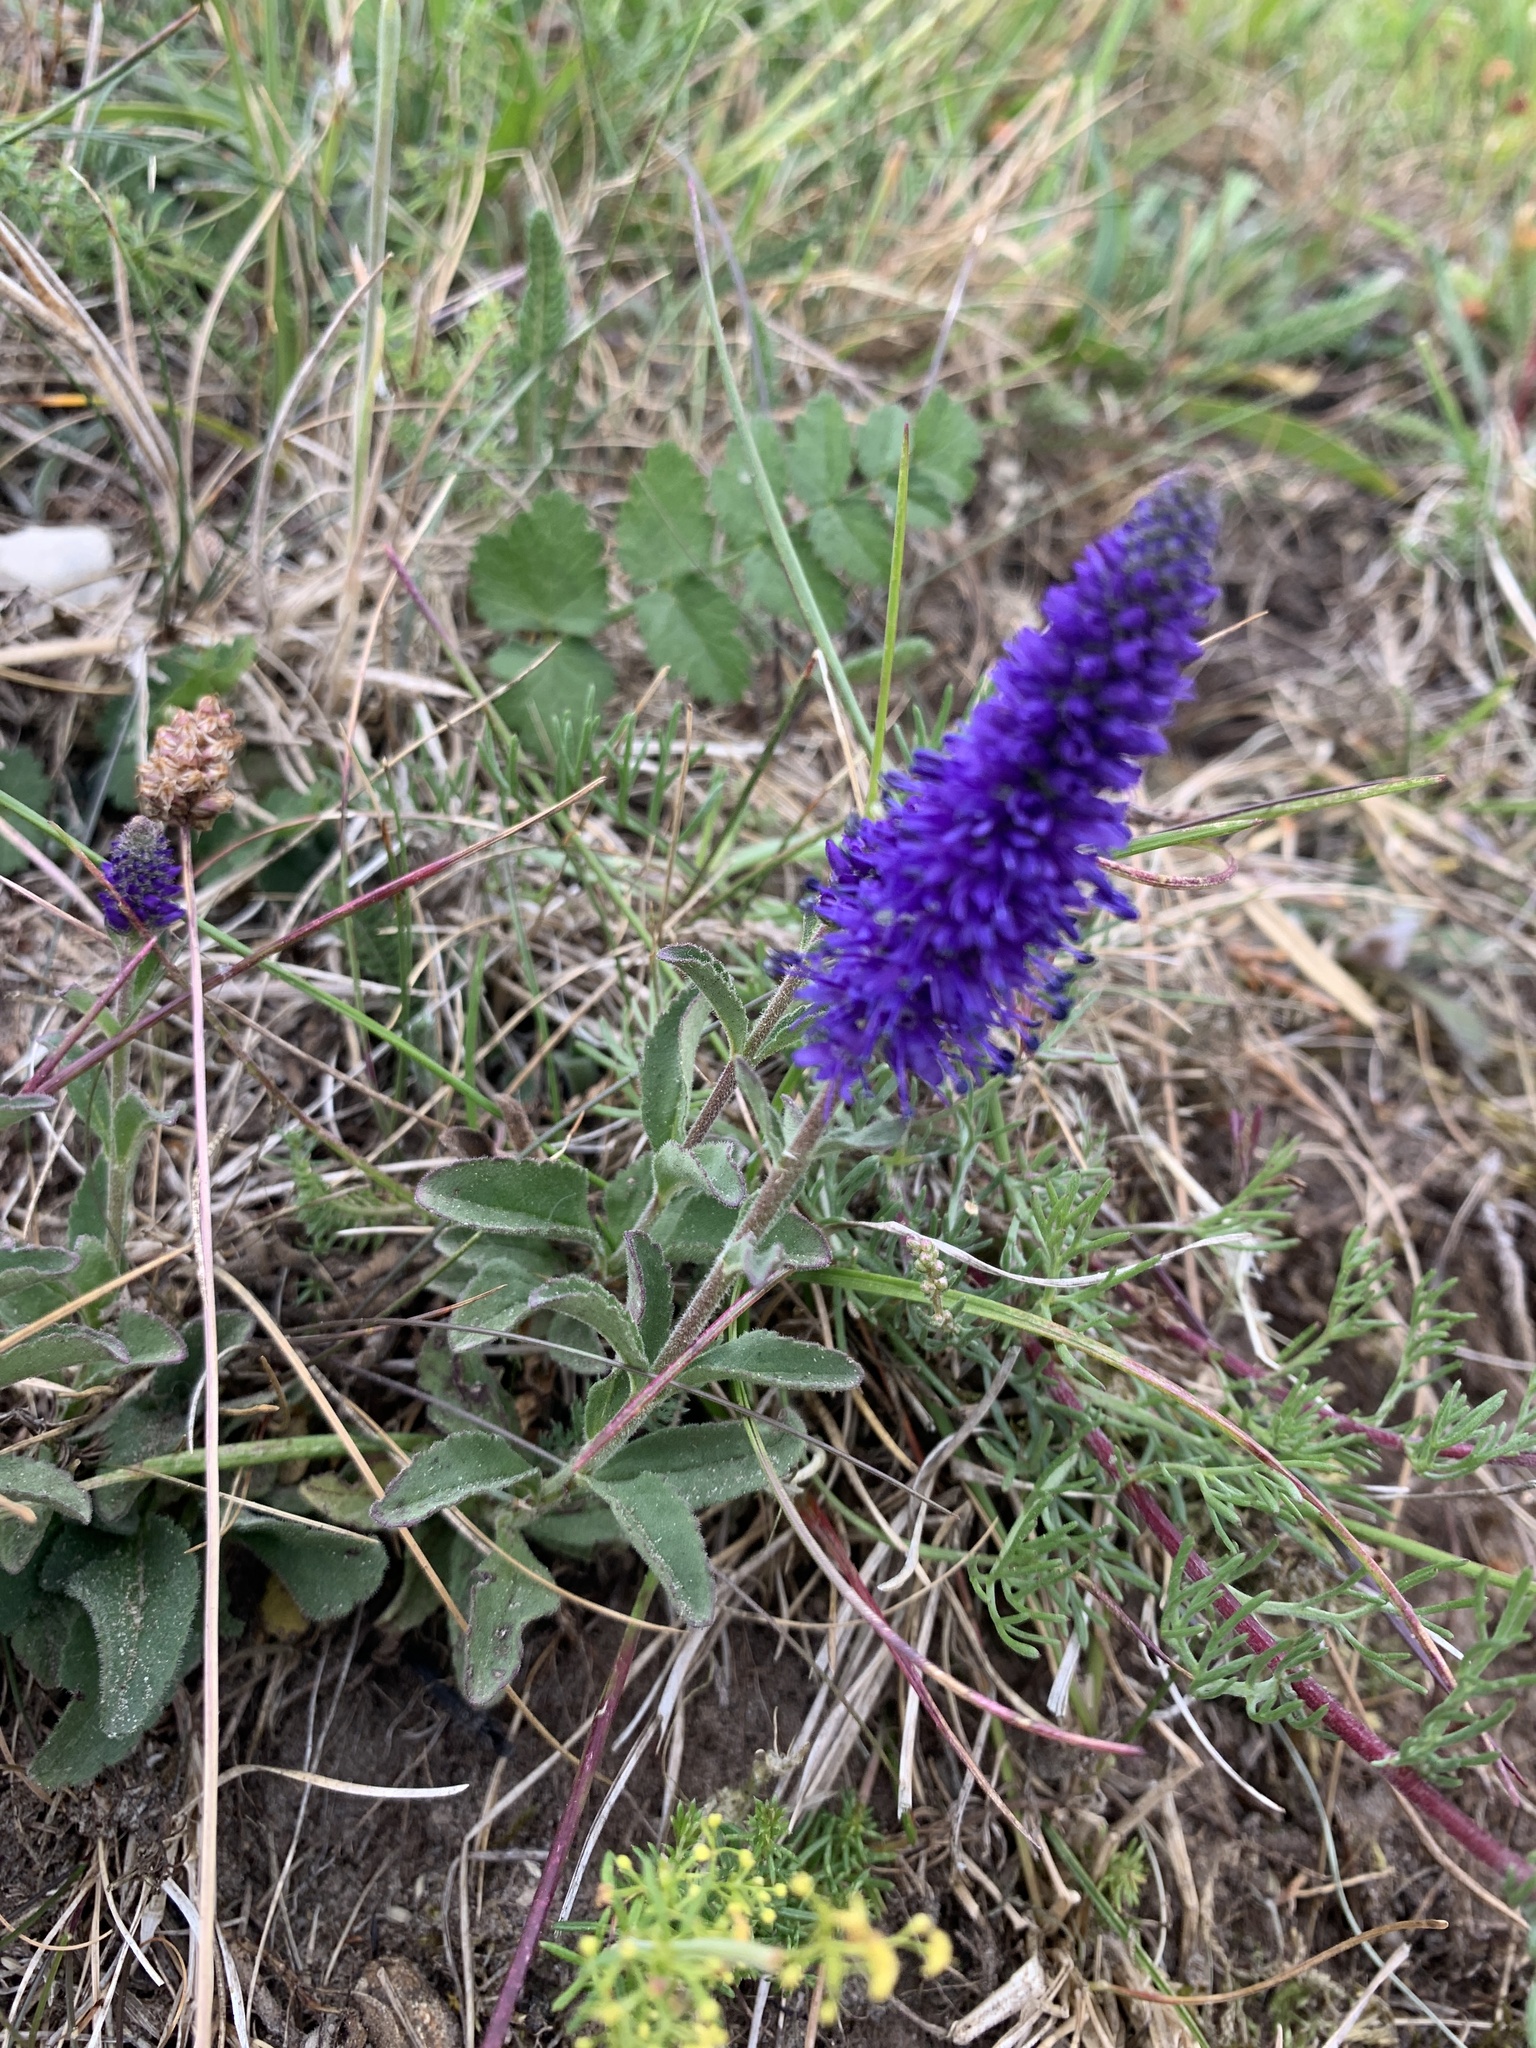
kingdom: Plantae
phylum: Tracheophyta
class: Magnoliopsida
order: Lamiales
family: Plantaginaceae
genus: Veronica
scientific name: Veronica spicata
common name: Spiked speedwell
